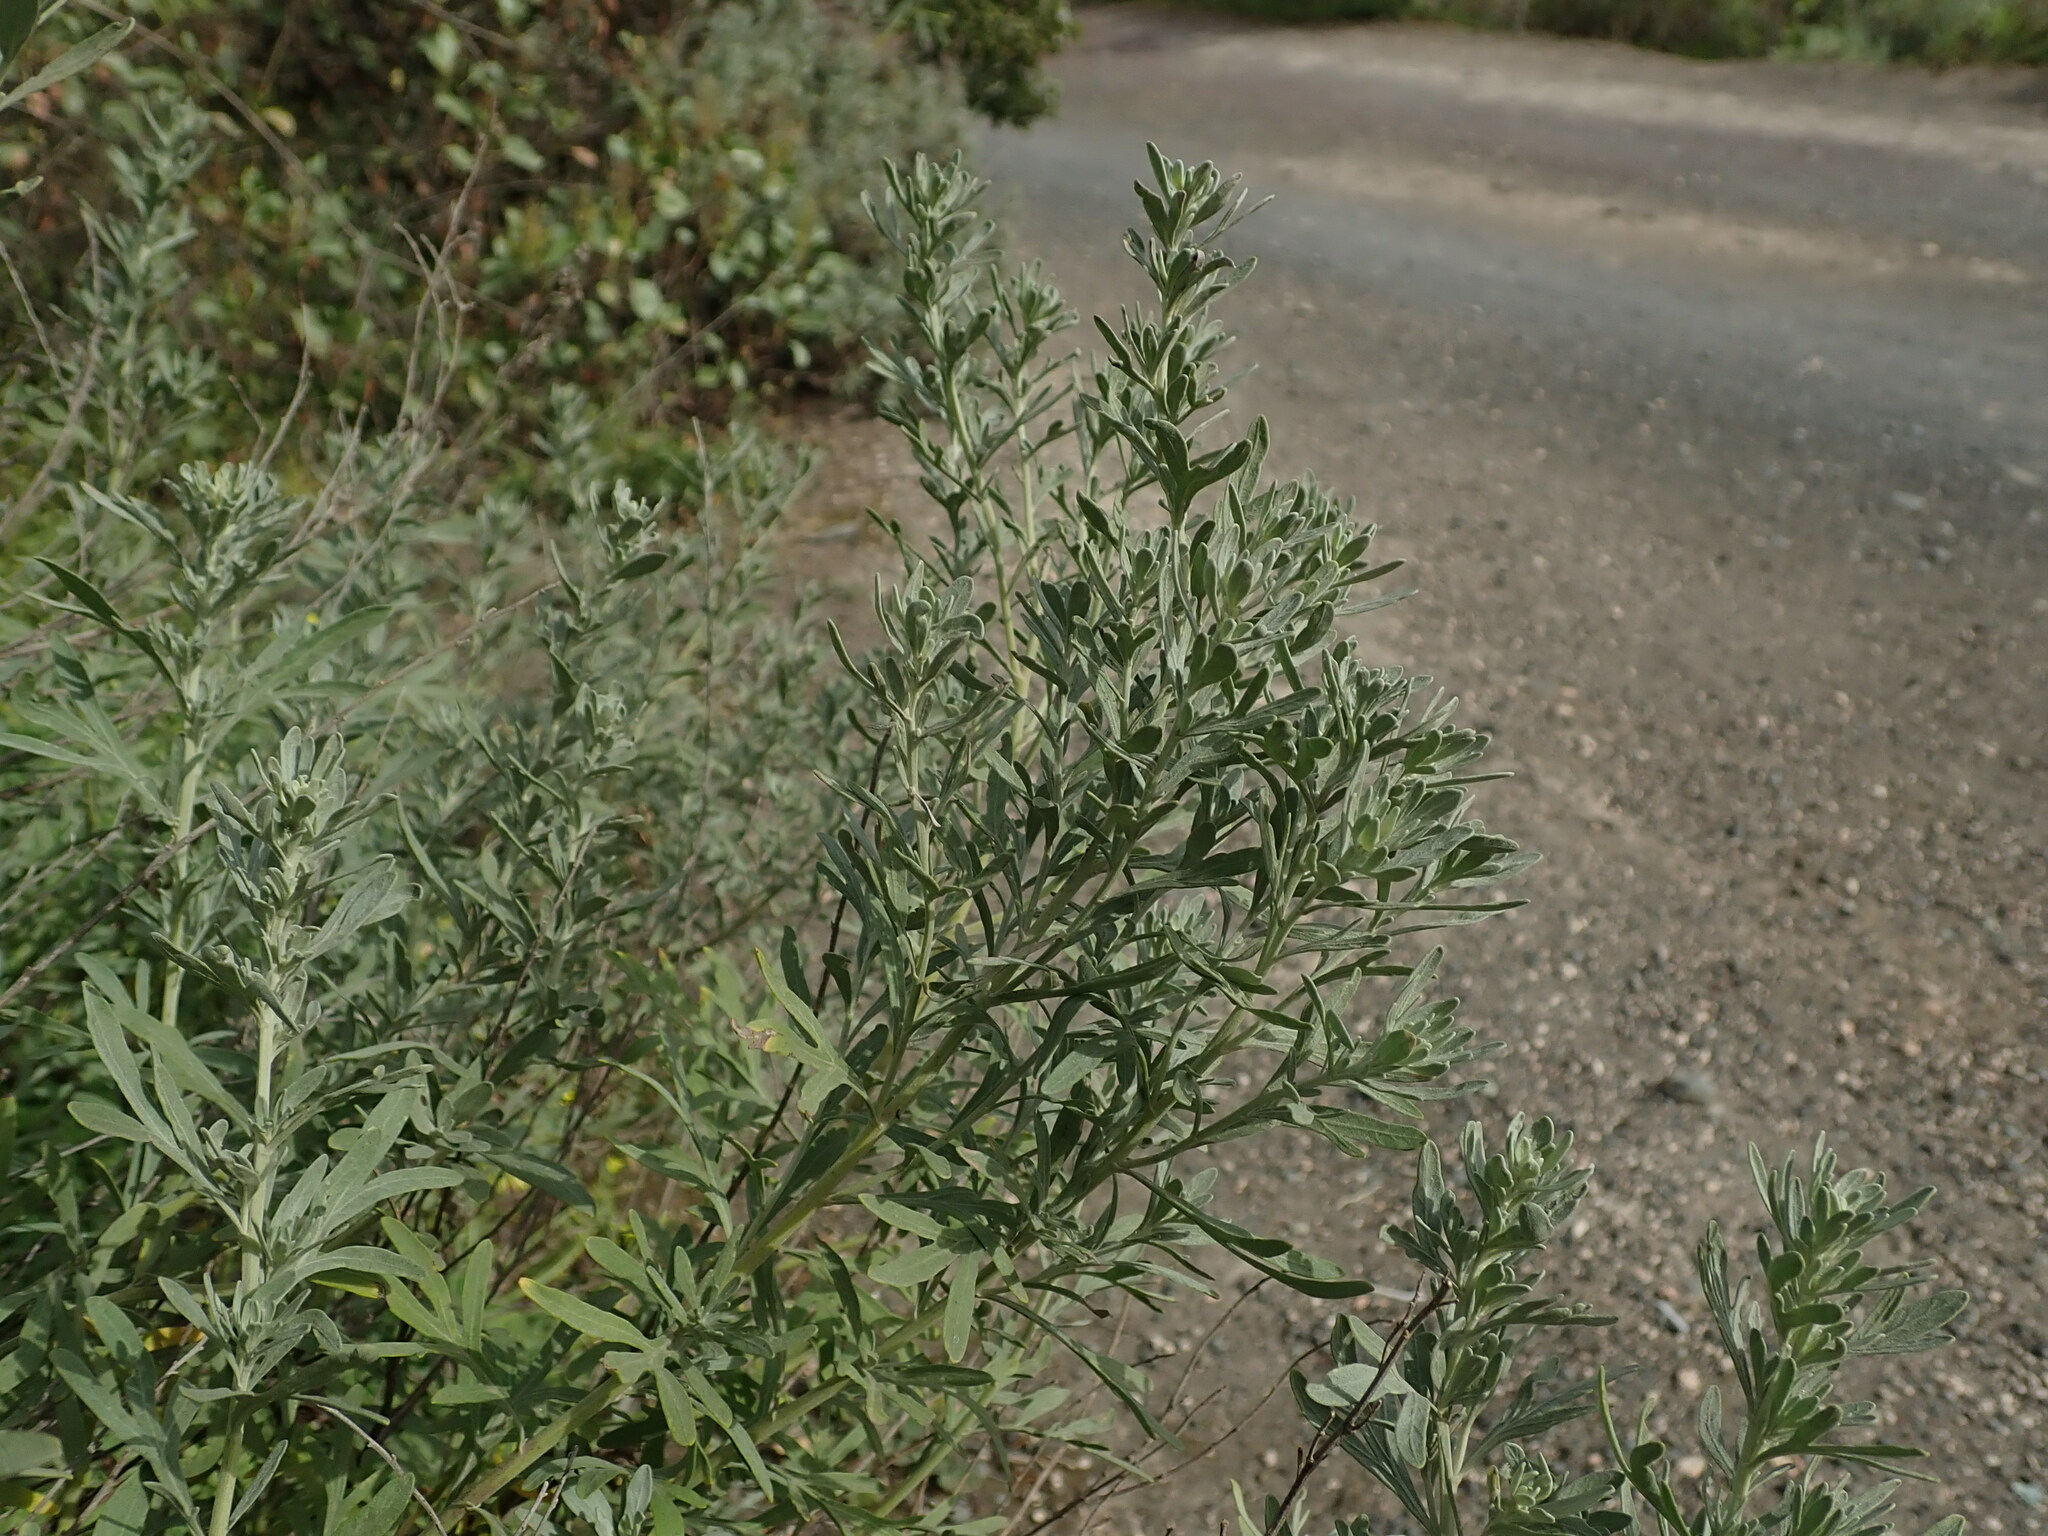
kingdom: Plantae
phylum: Tracheophyta
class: Magnoliopsida
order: Asterales
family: Asteraceae
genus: Artemisia
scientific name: Artemisia thuscula
